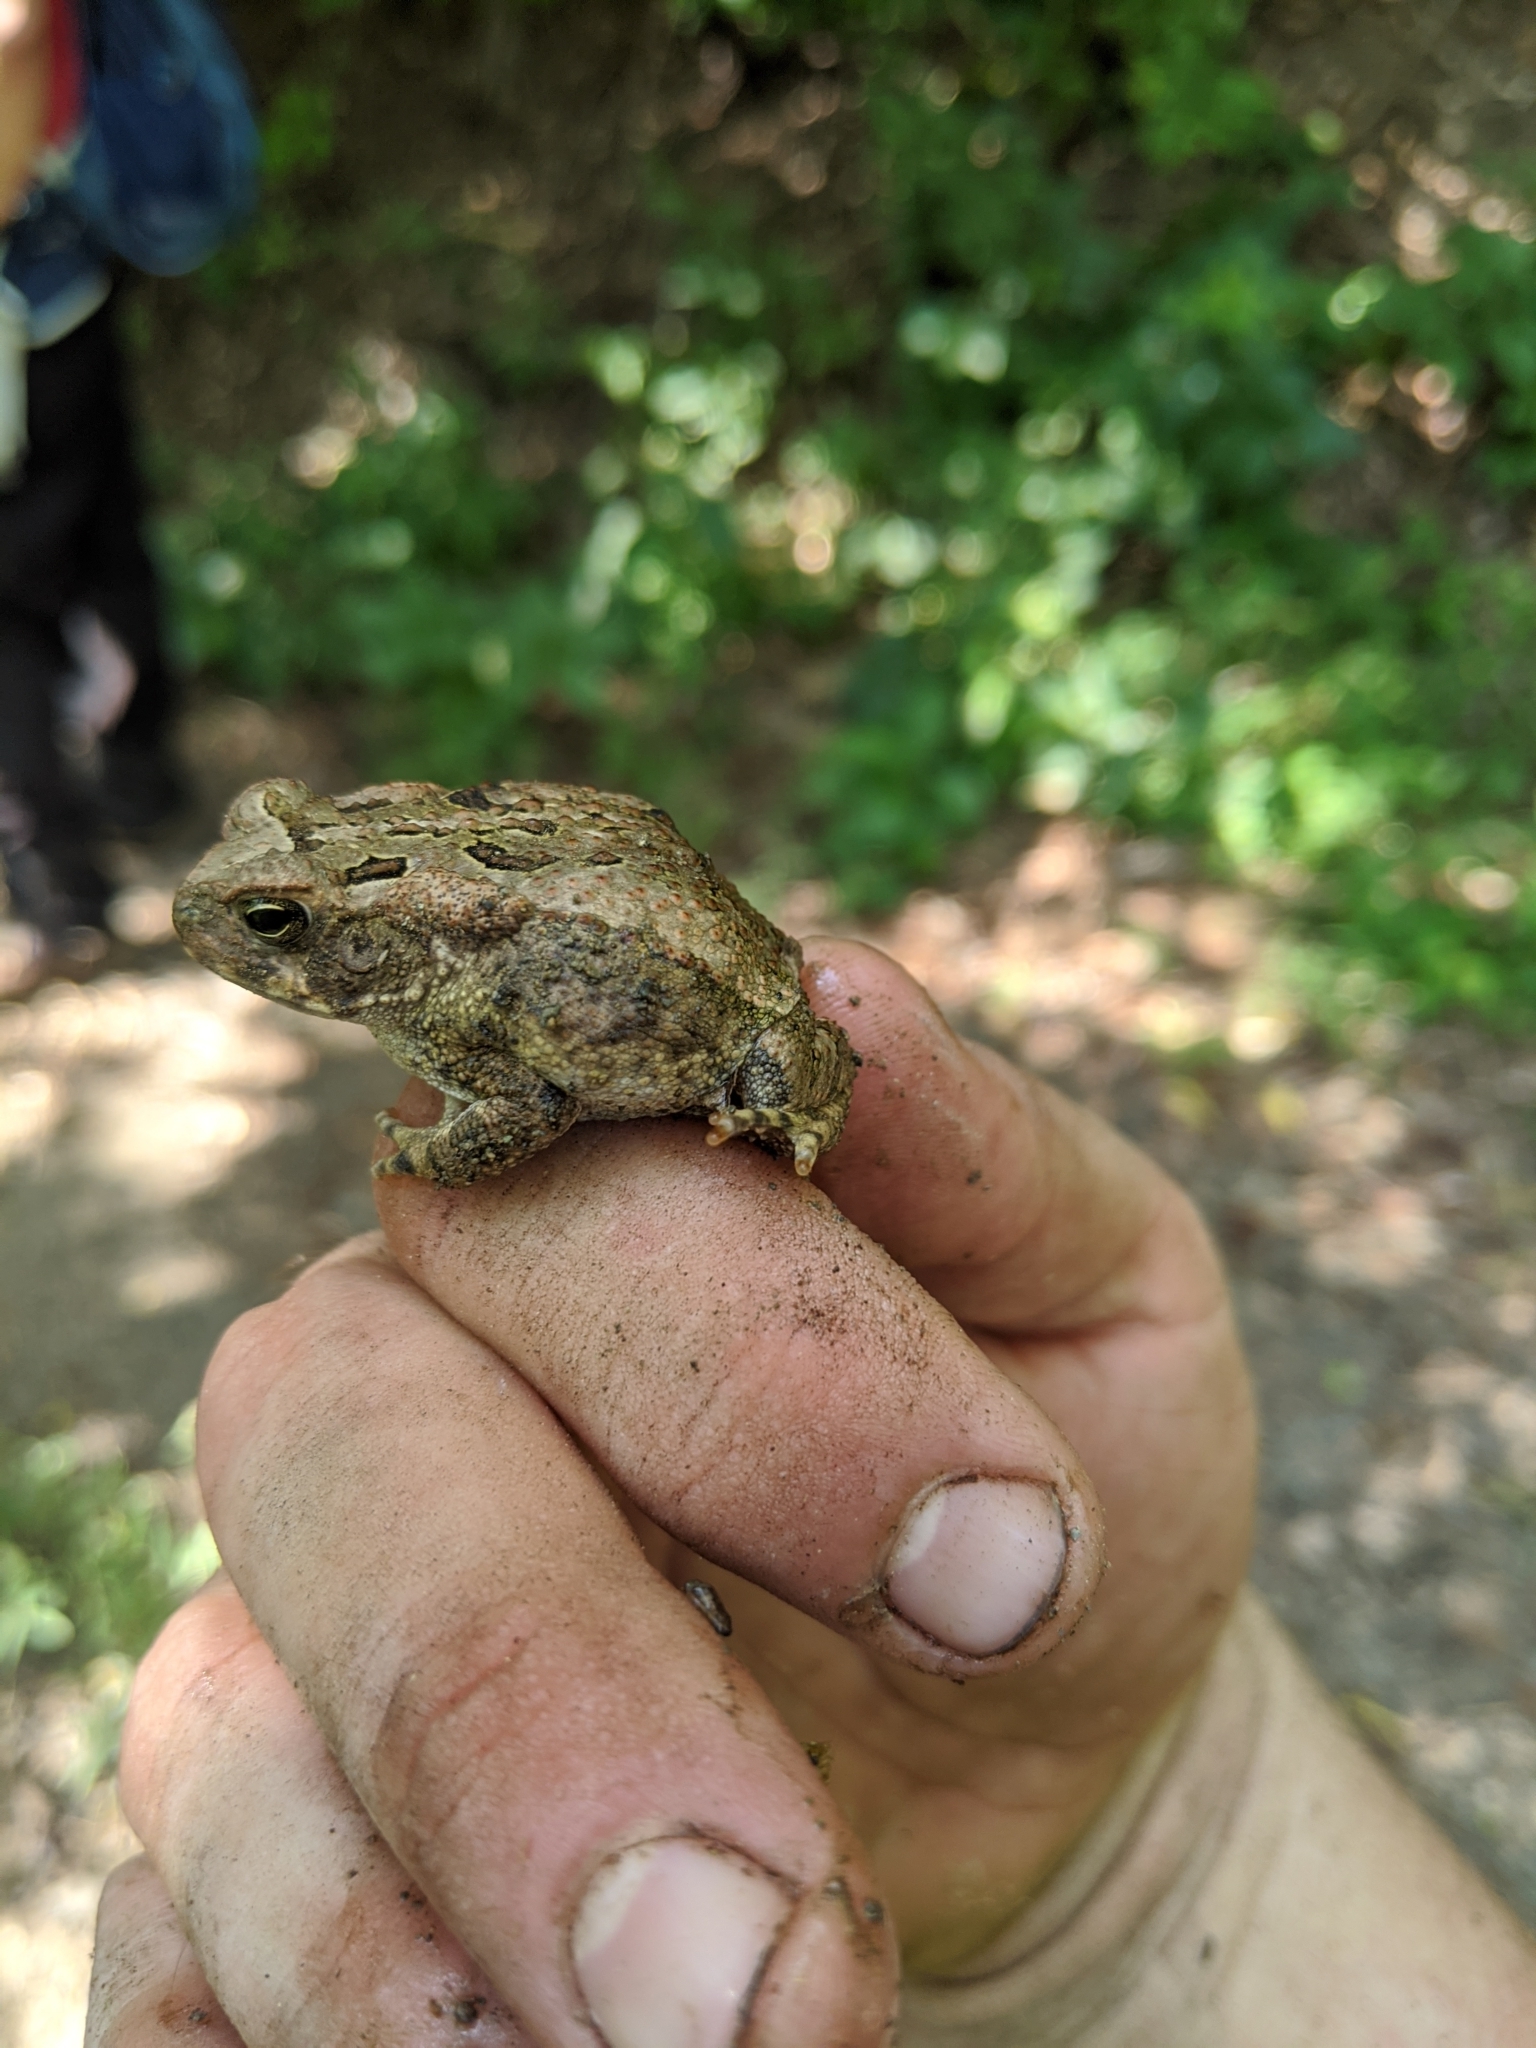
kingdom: Animalia
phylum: Chordata
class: Amphibia
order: Anura
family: Bufonidae
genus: Rhinella
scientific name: Rhinella horribilis
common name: Mesoamerican cane toad
